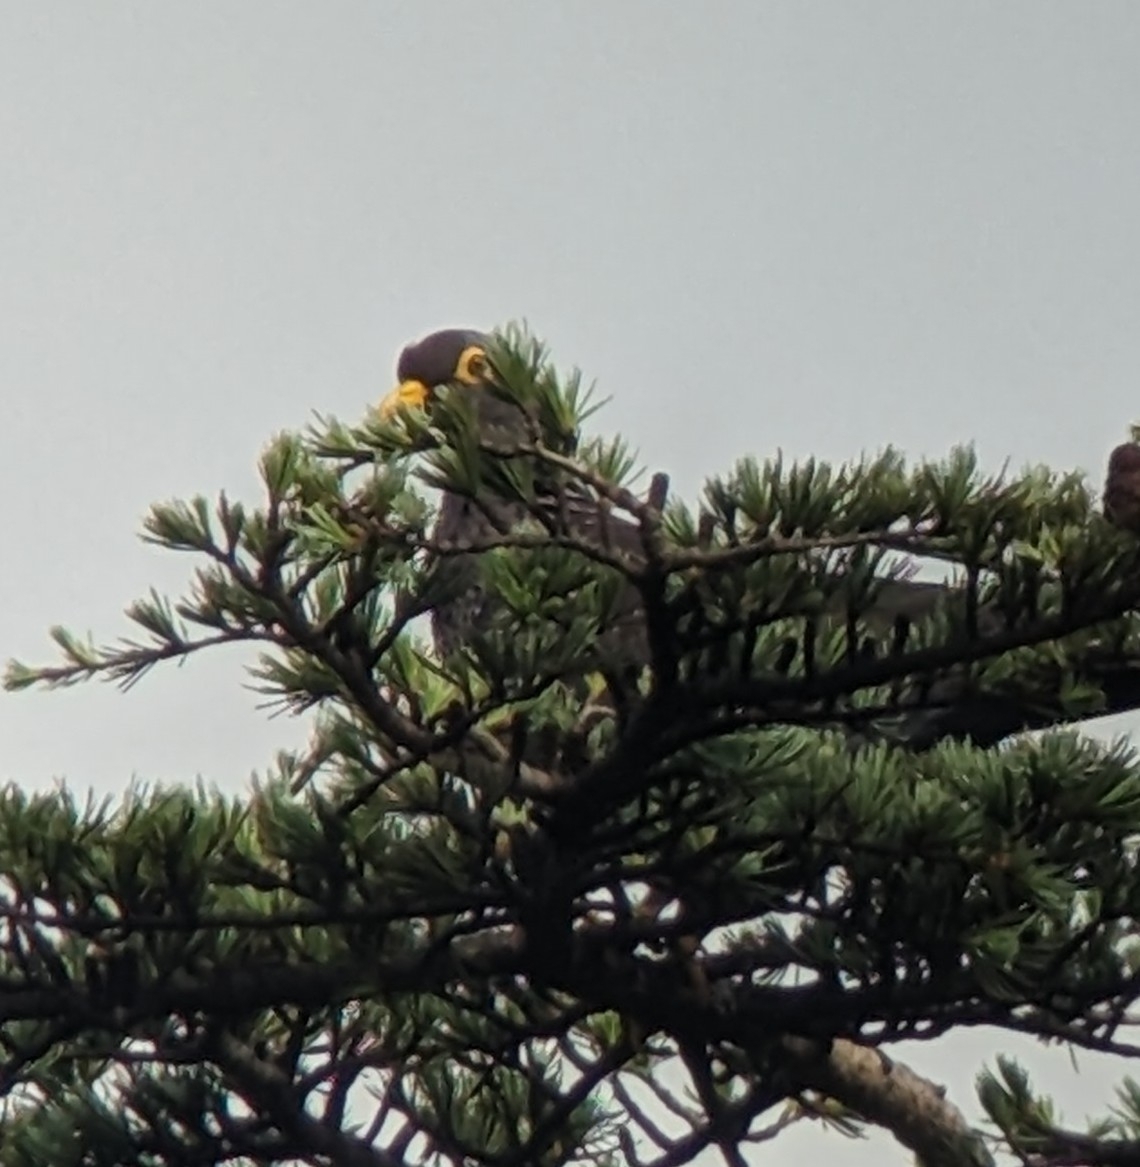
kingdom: Animalia
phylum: Chordata
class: Aves
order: Columbiformes
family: Columbidae
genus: Columba
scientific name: Columba arquatrix
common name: African olive pigeon
